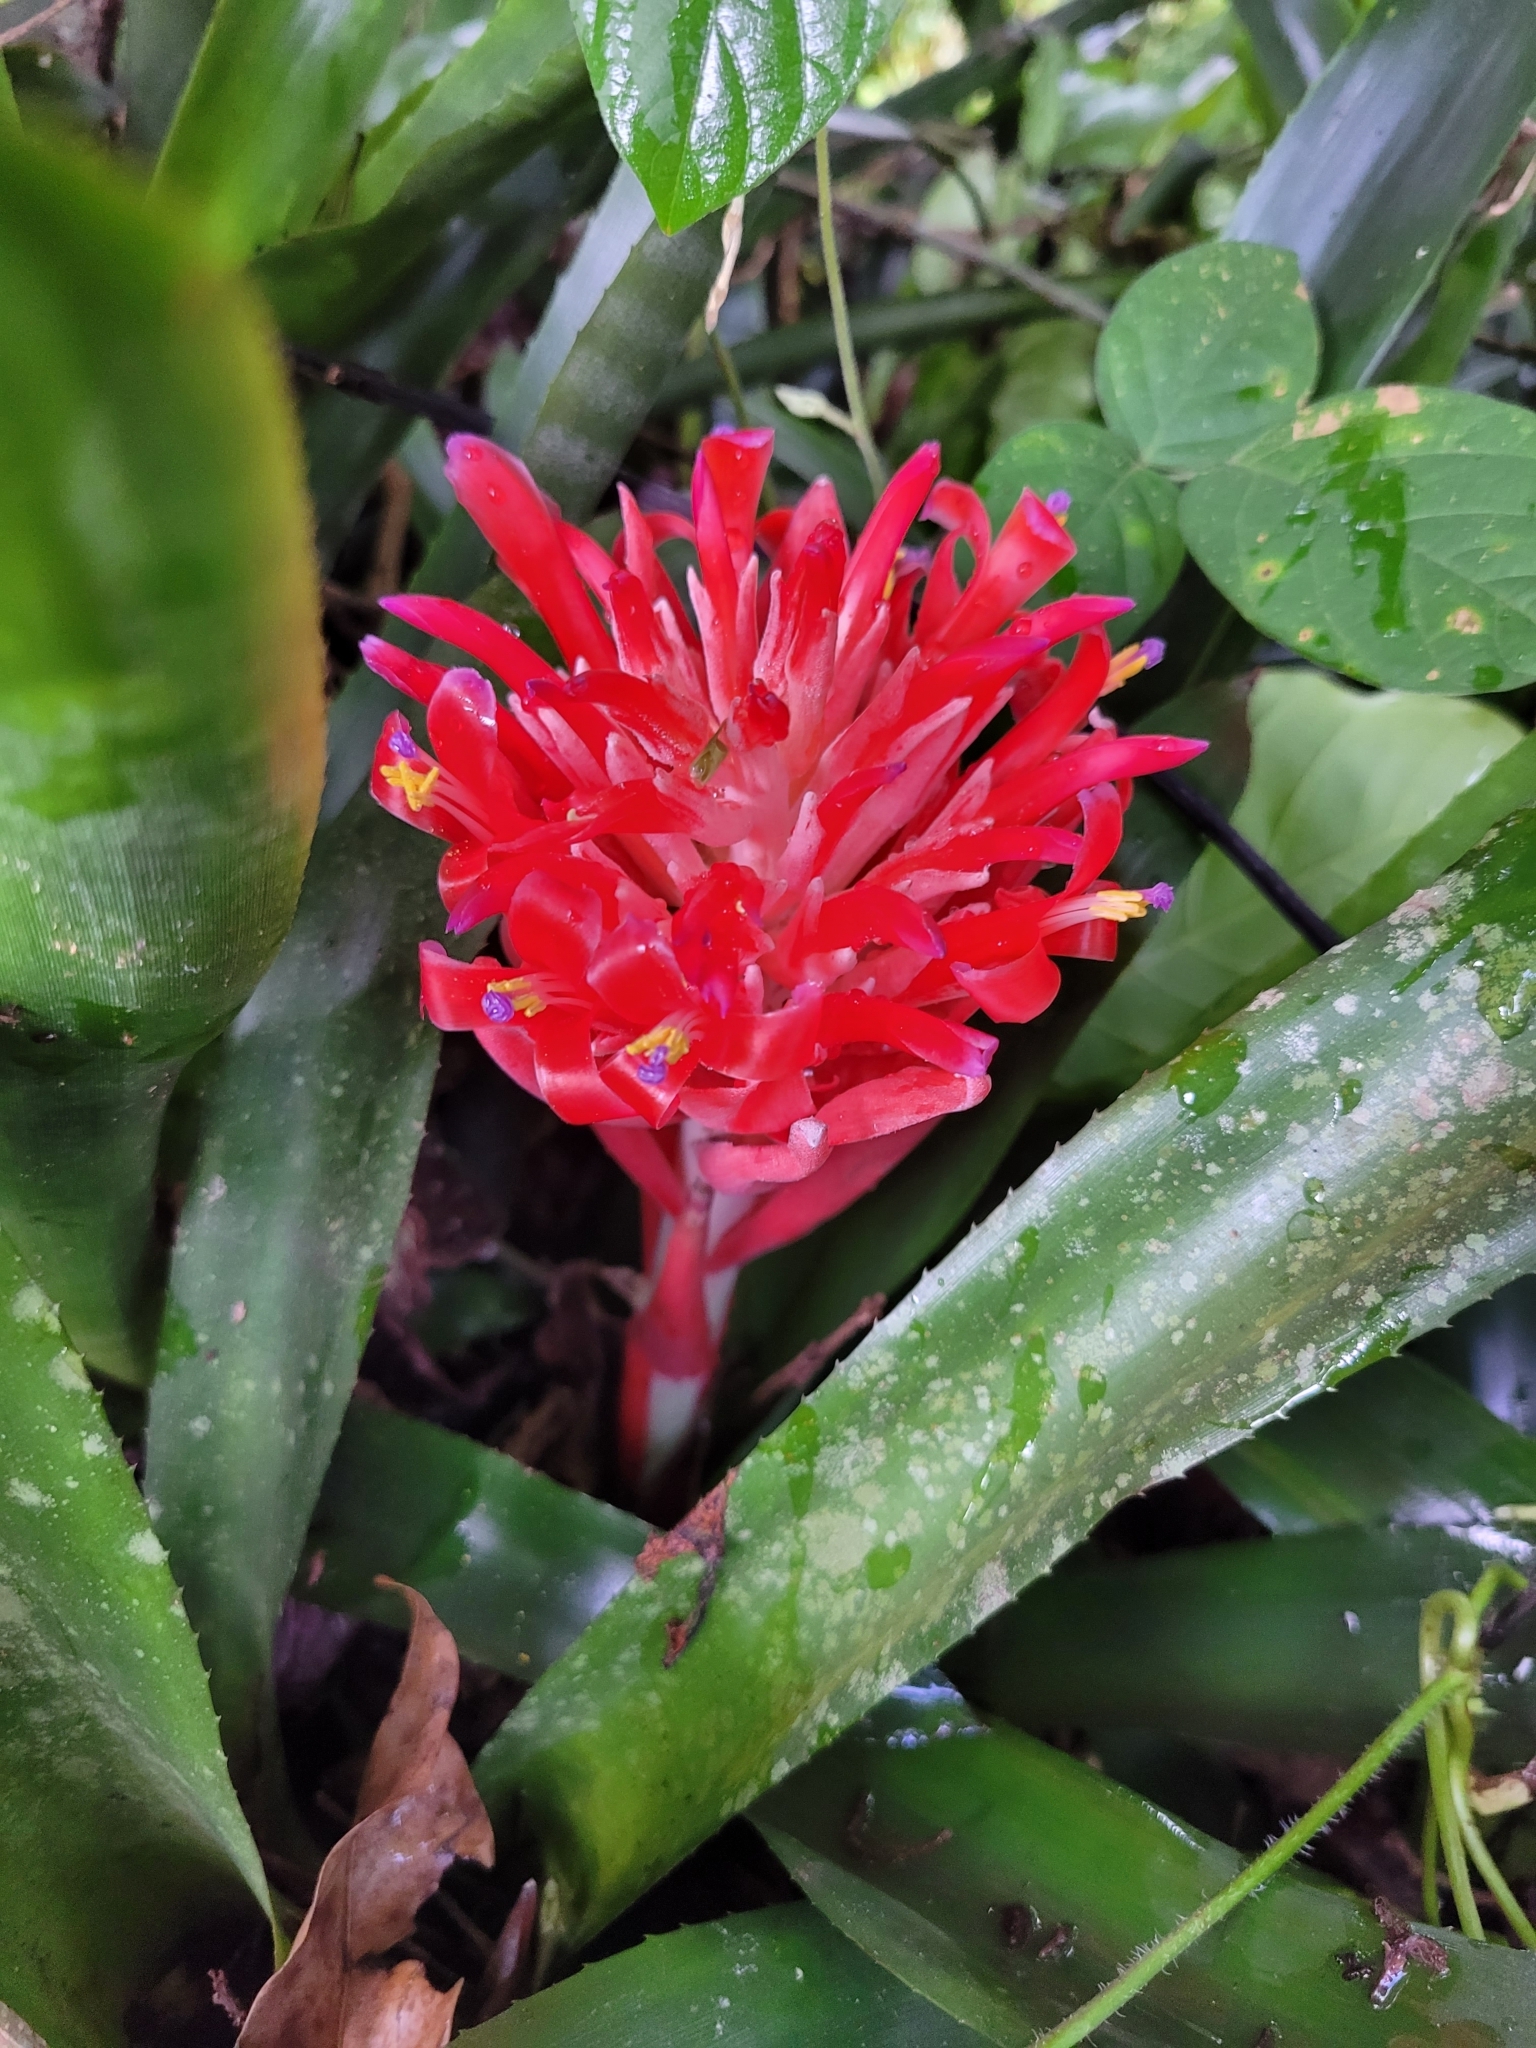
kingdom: Plantae
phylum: Tracheophyta
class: Liliopsida
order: Poales
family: Bromeliaceae
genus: Billbergia
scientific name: Billbergia pyramidalis
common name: Foolproofplant
